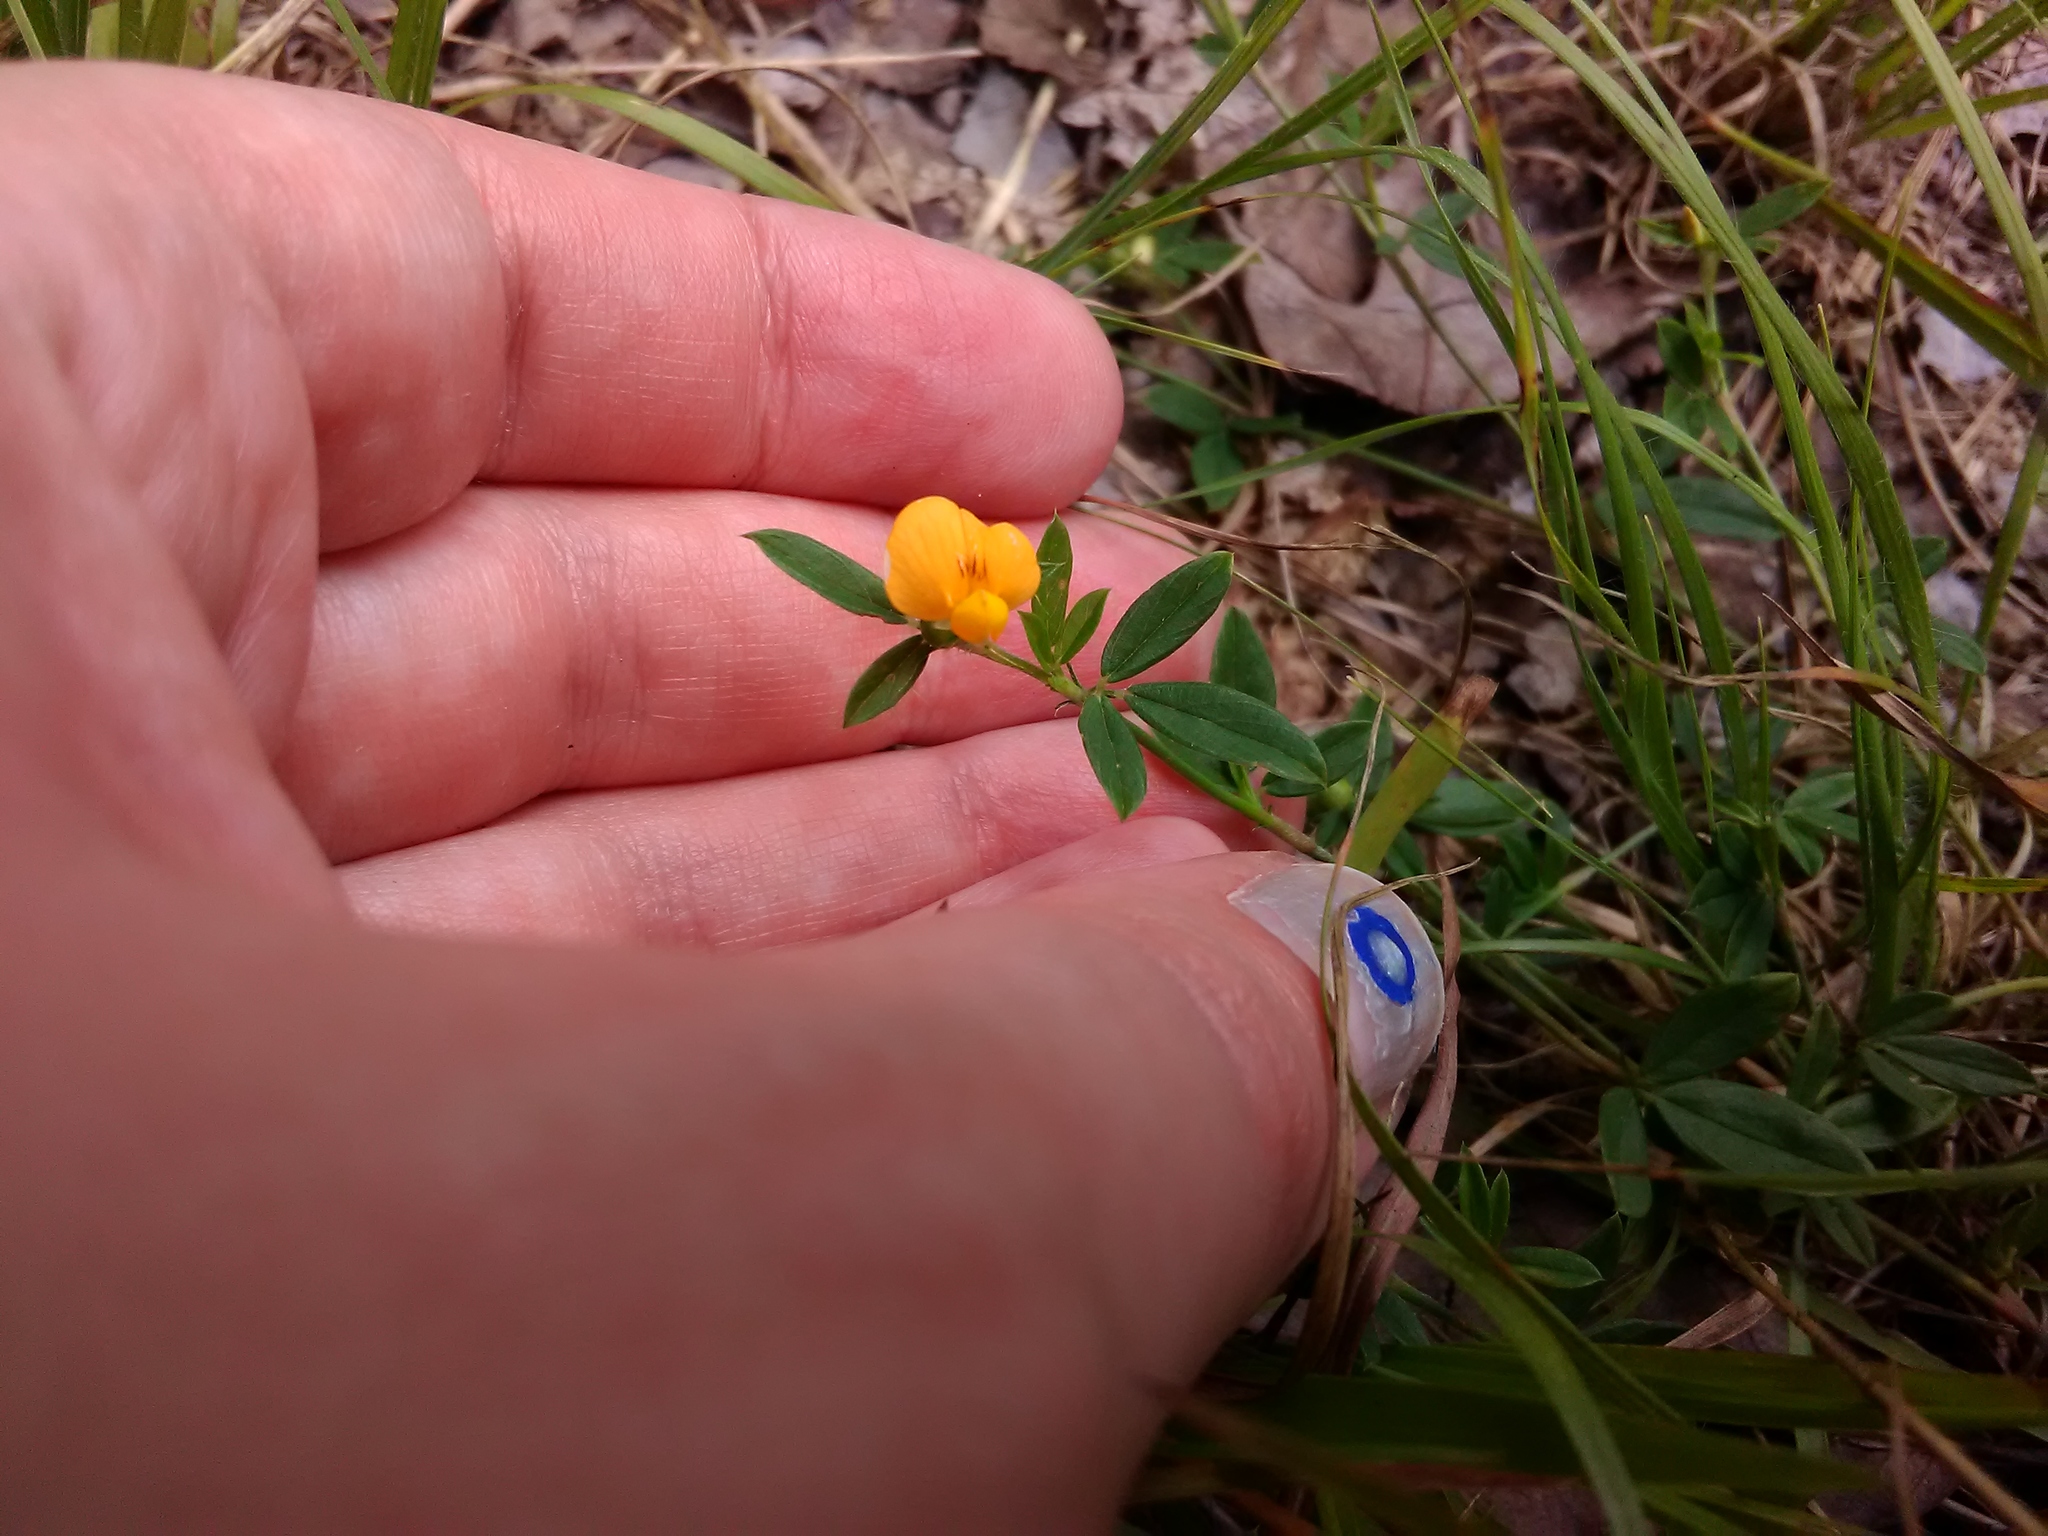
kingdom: Plantae
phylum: Tracheophyta
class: Magnoliopsida
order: Fabales
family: Fabaceae
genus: Stylosanthes
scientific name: Stylosanthes biflora
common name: Two-flower pencil-flower
